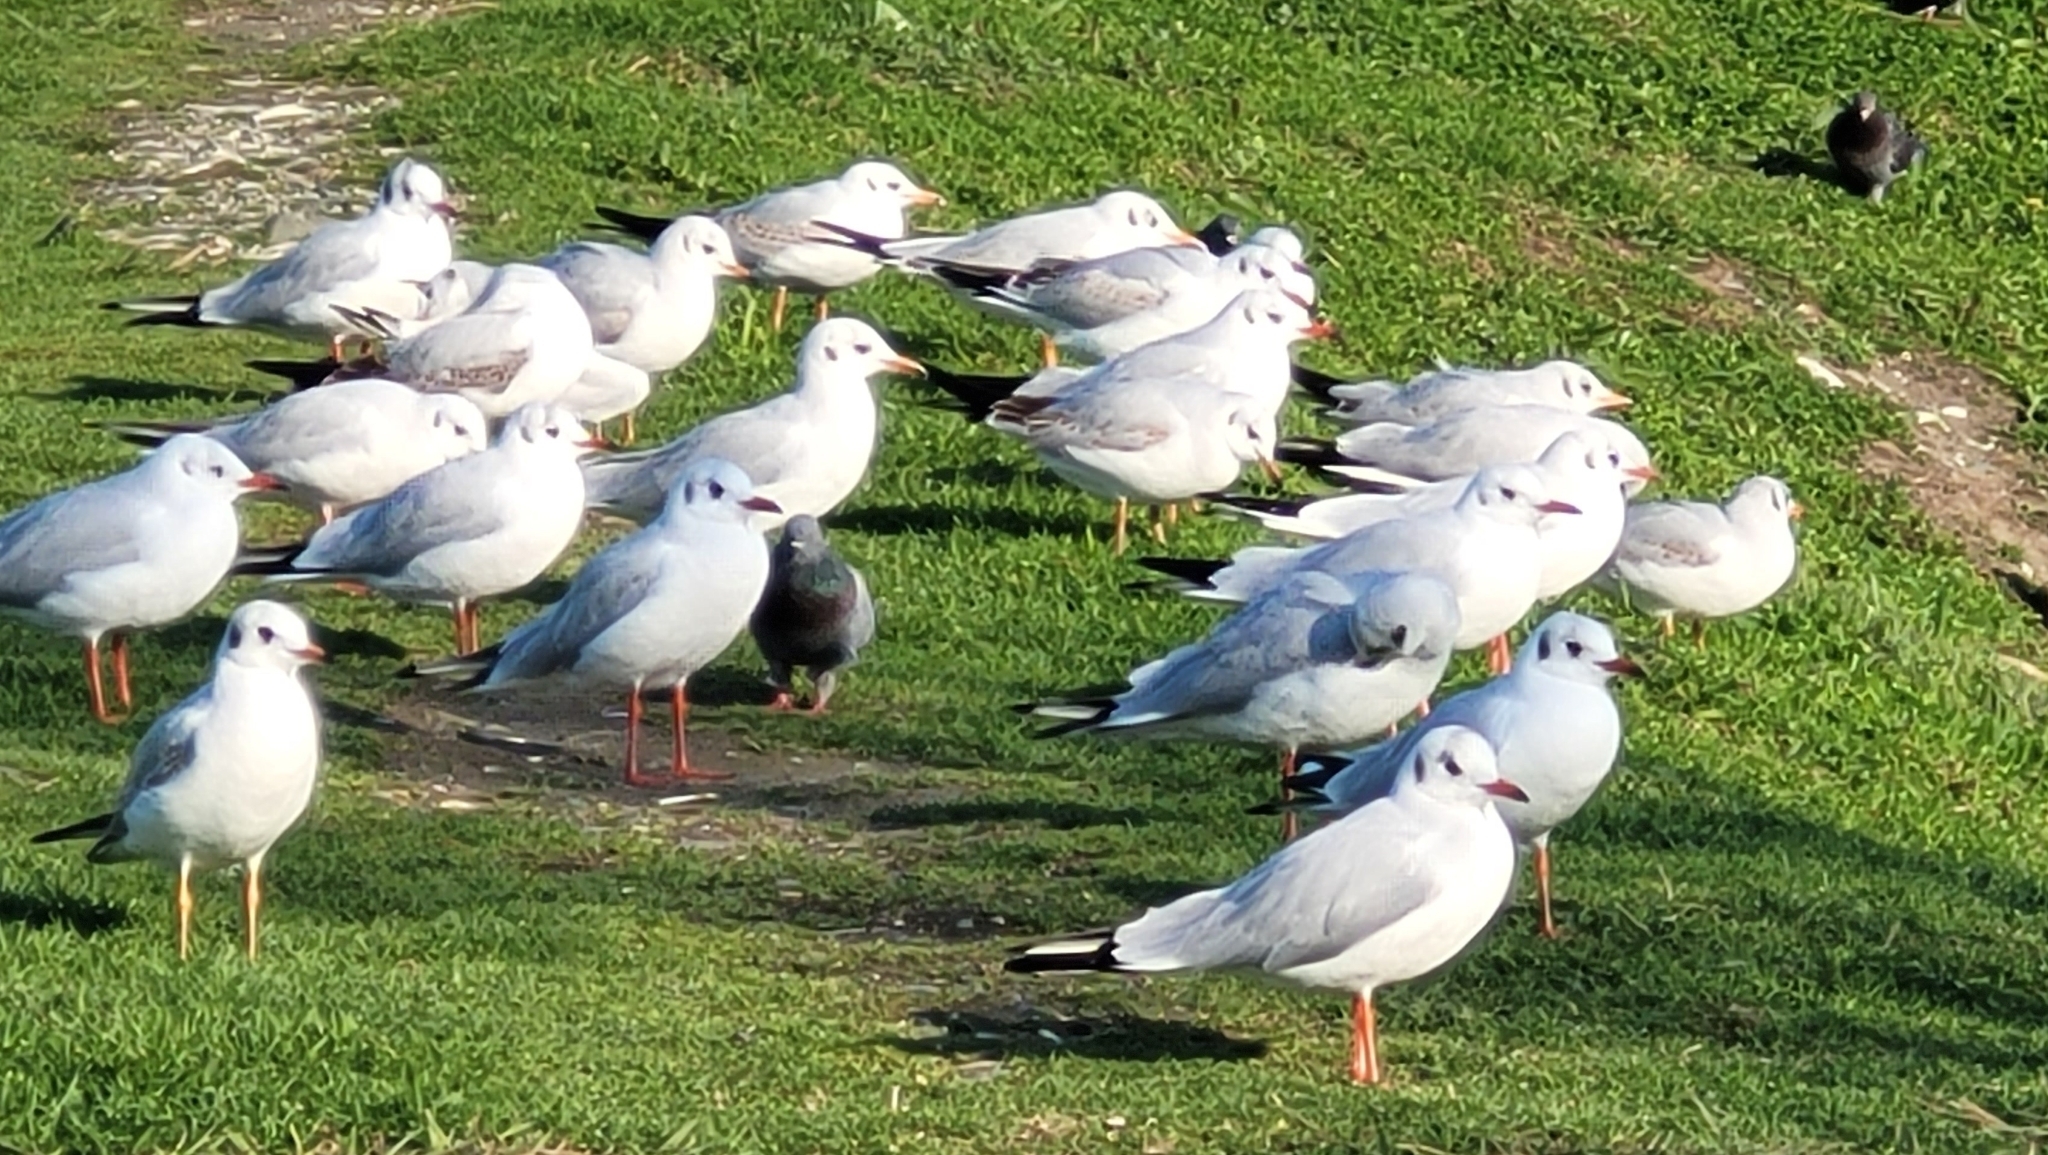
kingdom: Animalia
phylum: Chordata
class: Aves
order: Charadriiformes
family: Laridae
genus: Chroicocephalus
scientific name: Chroicocephalus ridibundus
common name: Black-headed gull
